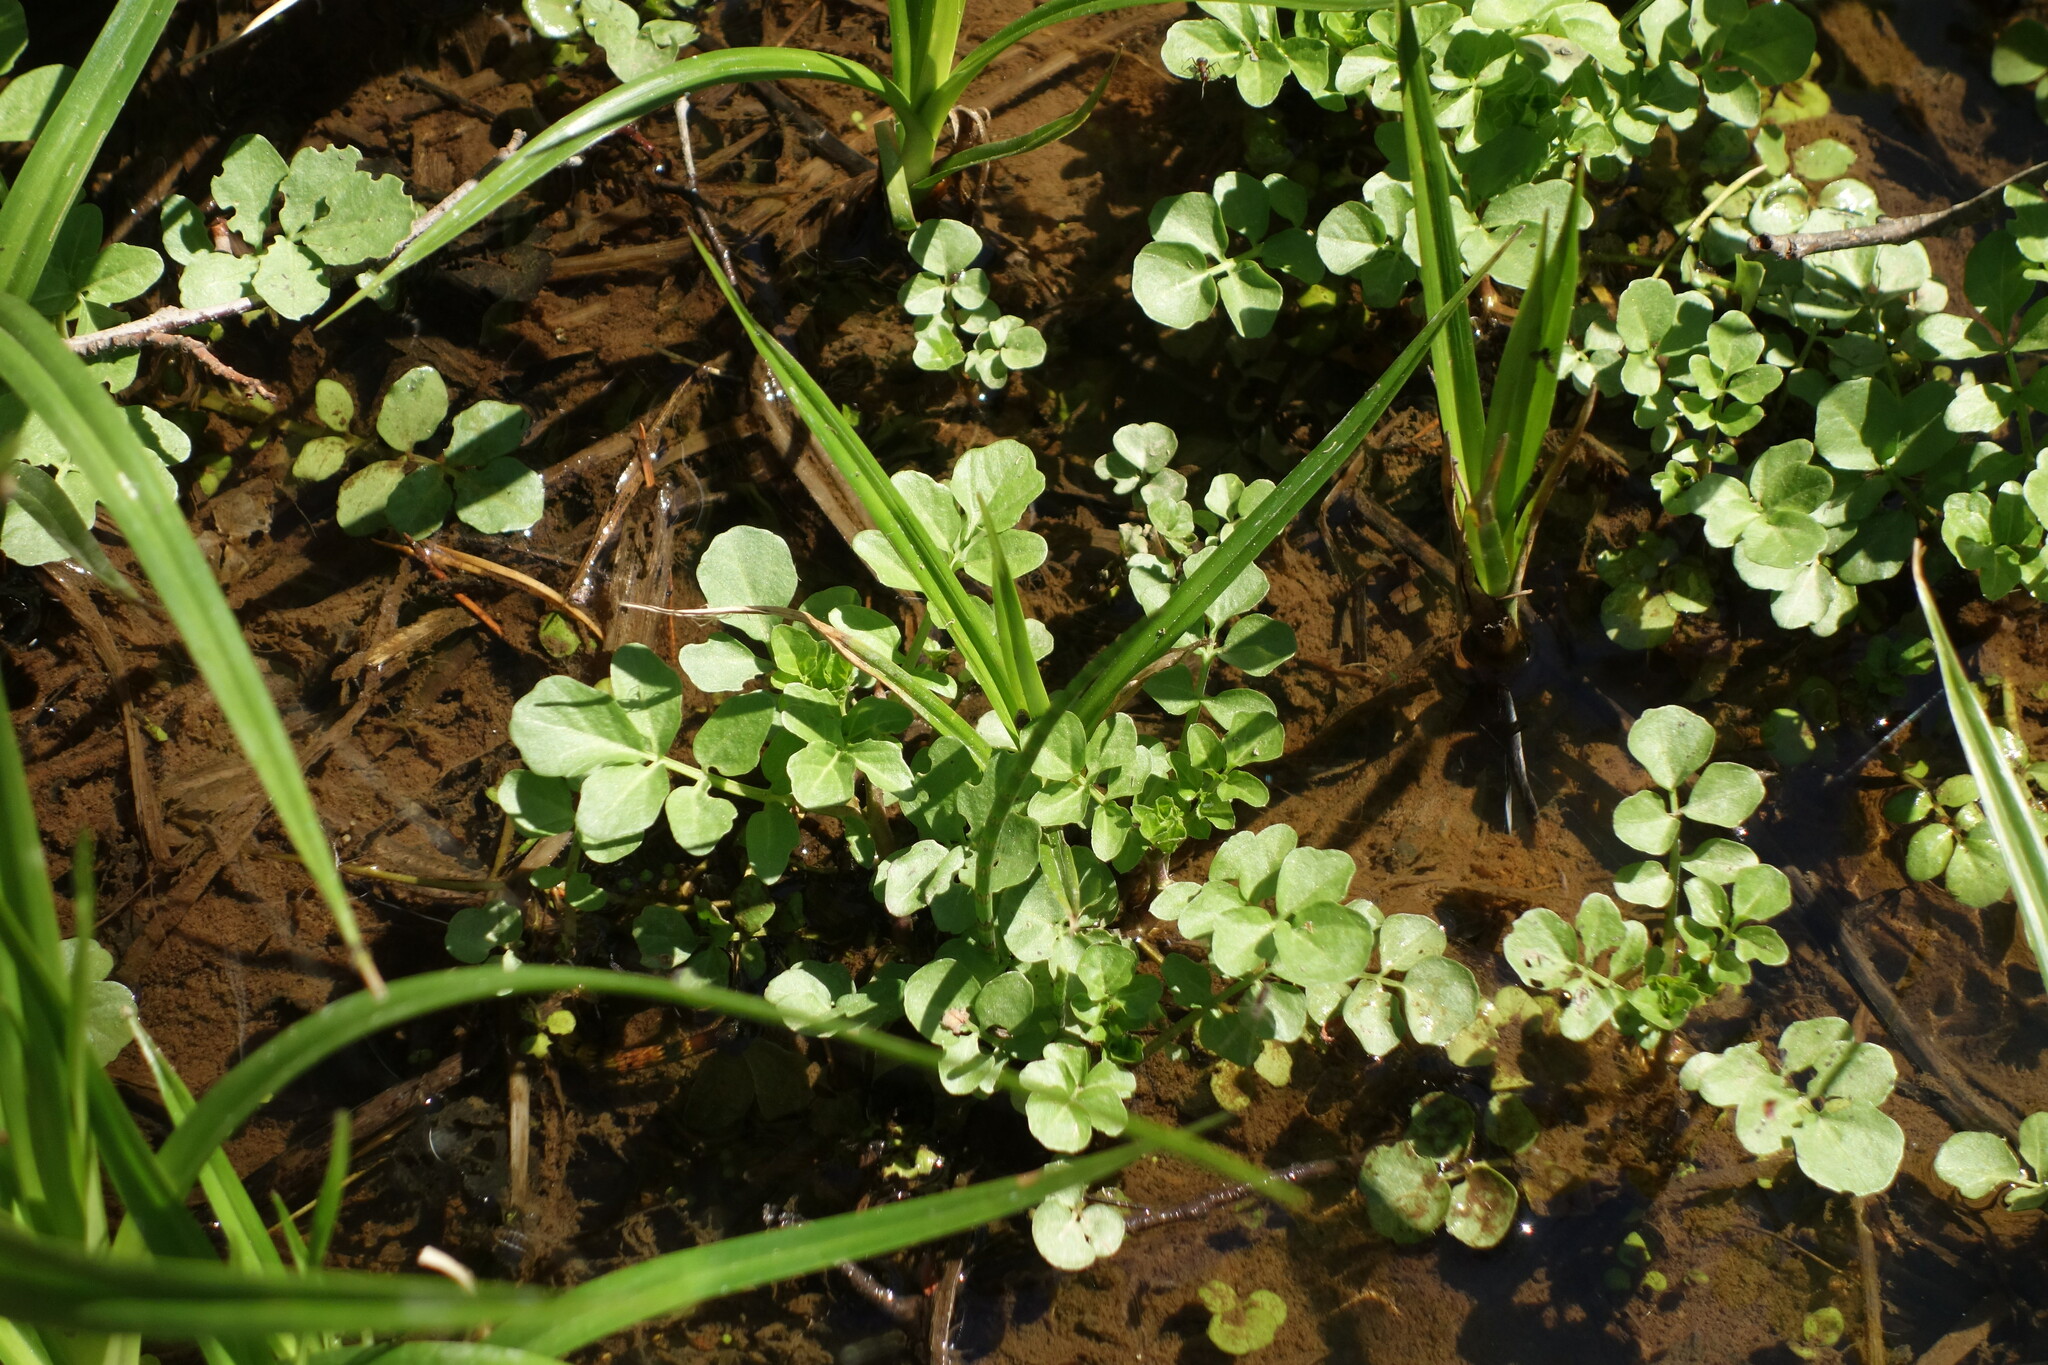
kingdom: Plantae
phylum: Tracheophyta
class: Magnoliopsida
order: Brassicales
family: Brassicaceae
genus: Cardamine
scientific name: Cardamine amara
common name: Large bitter-cress
